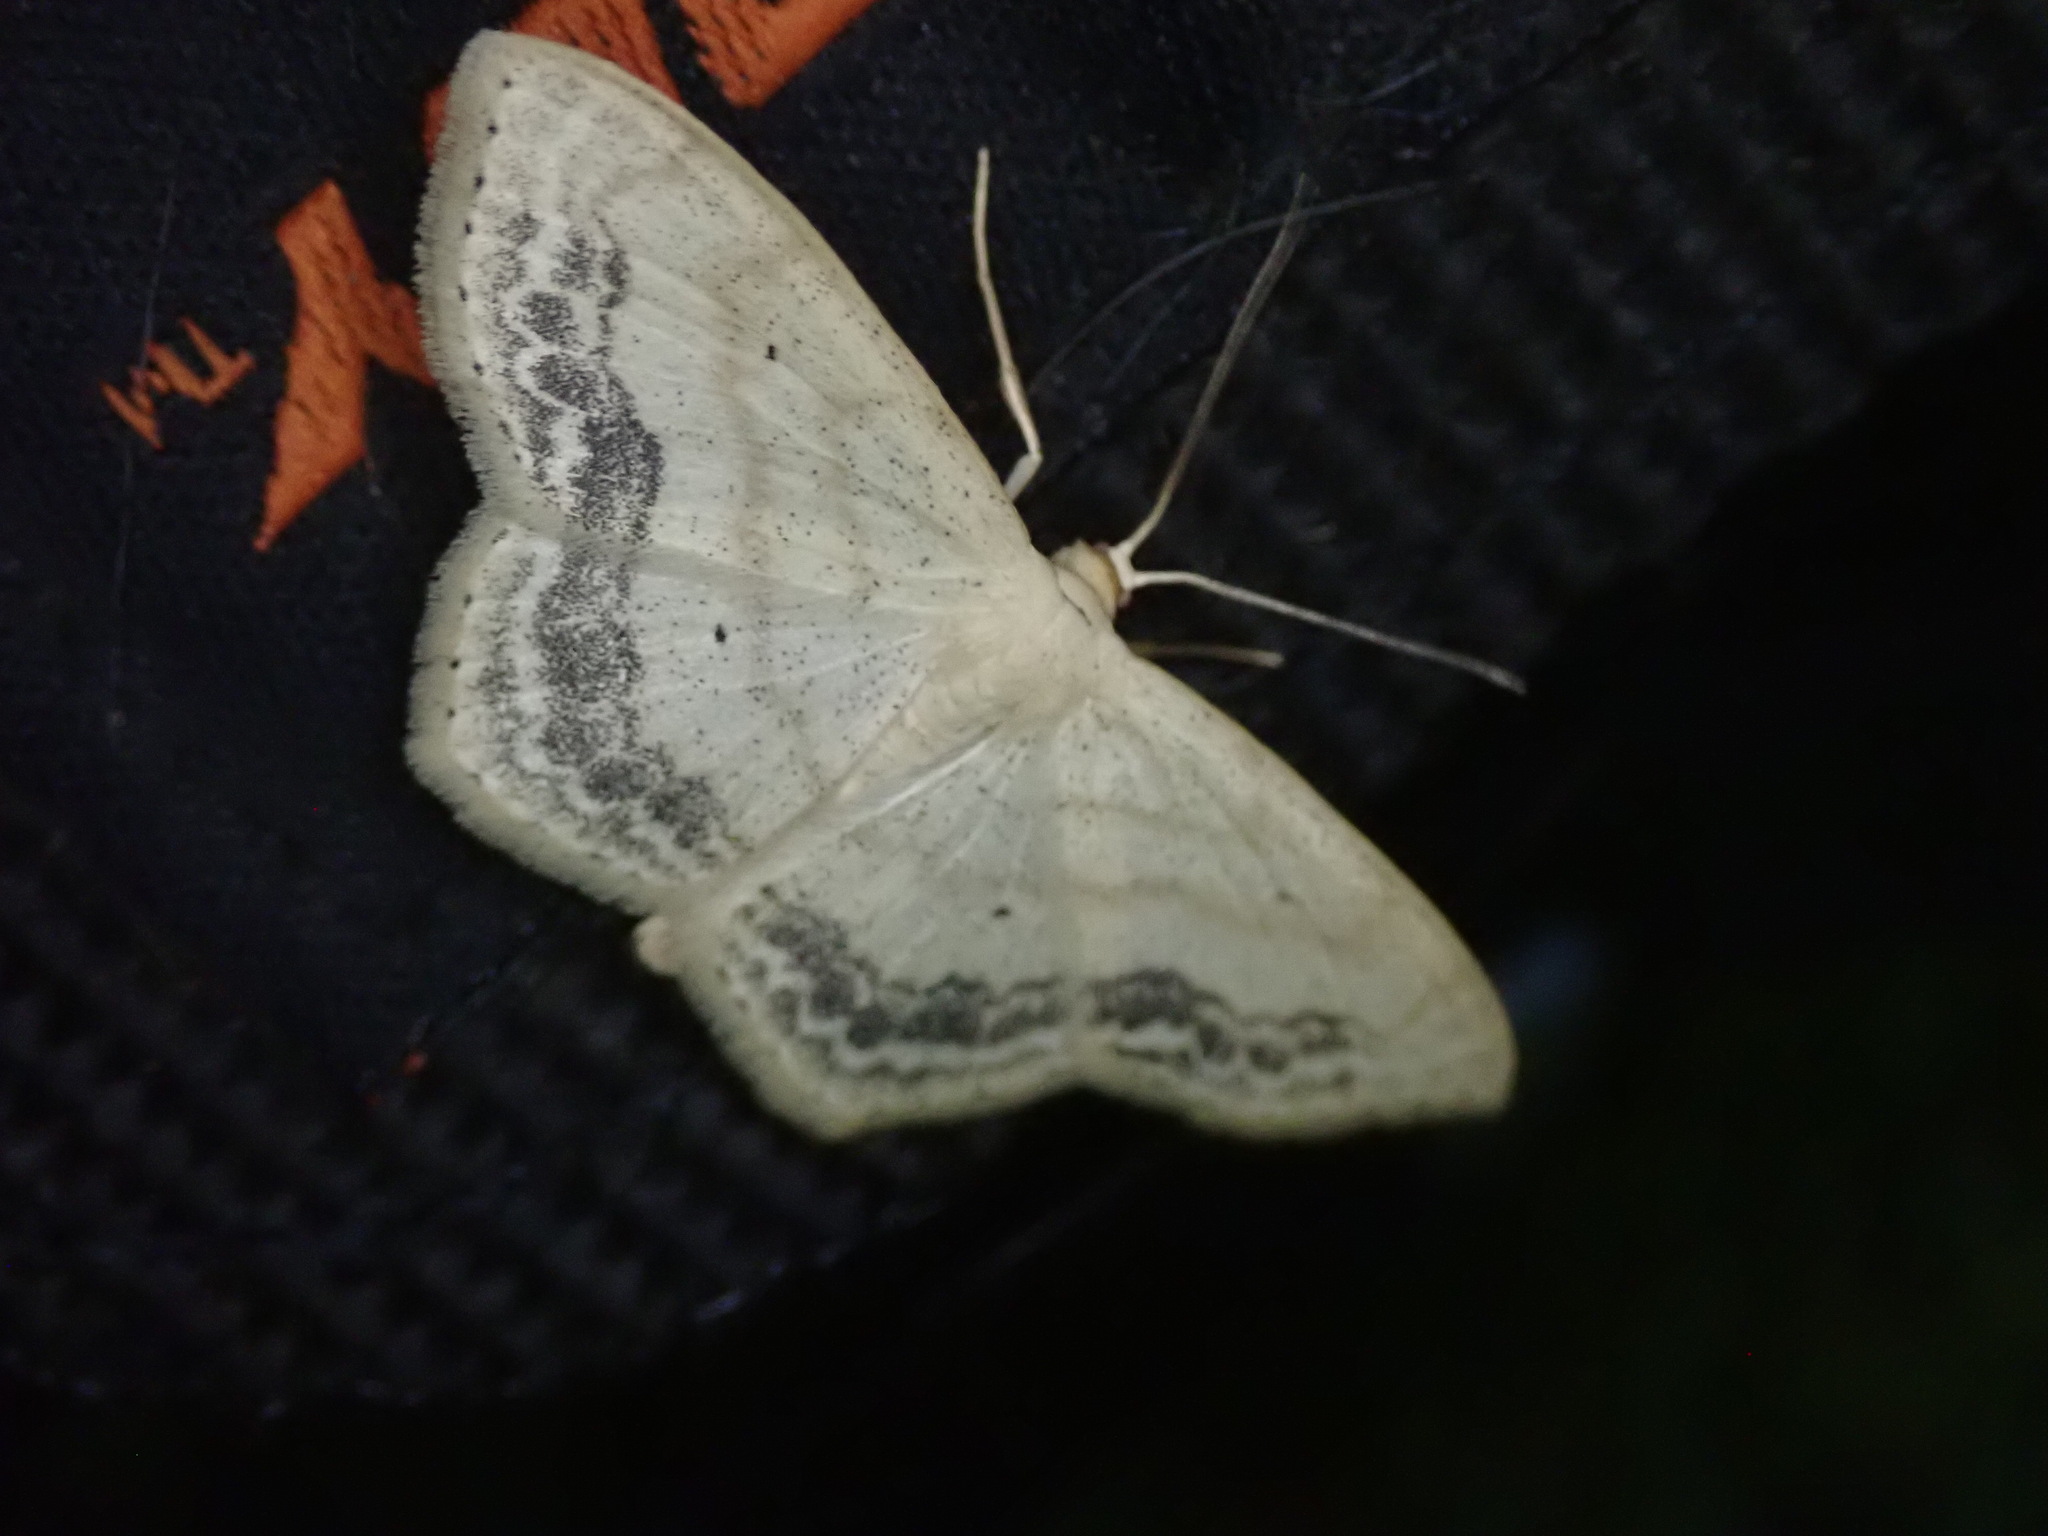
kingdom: Animalia
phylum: Arthropoda
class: Insecta
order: Lepidoptera
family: Geometridae
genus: Scopula
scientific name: Scopula limboundata
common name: Large lace border
